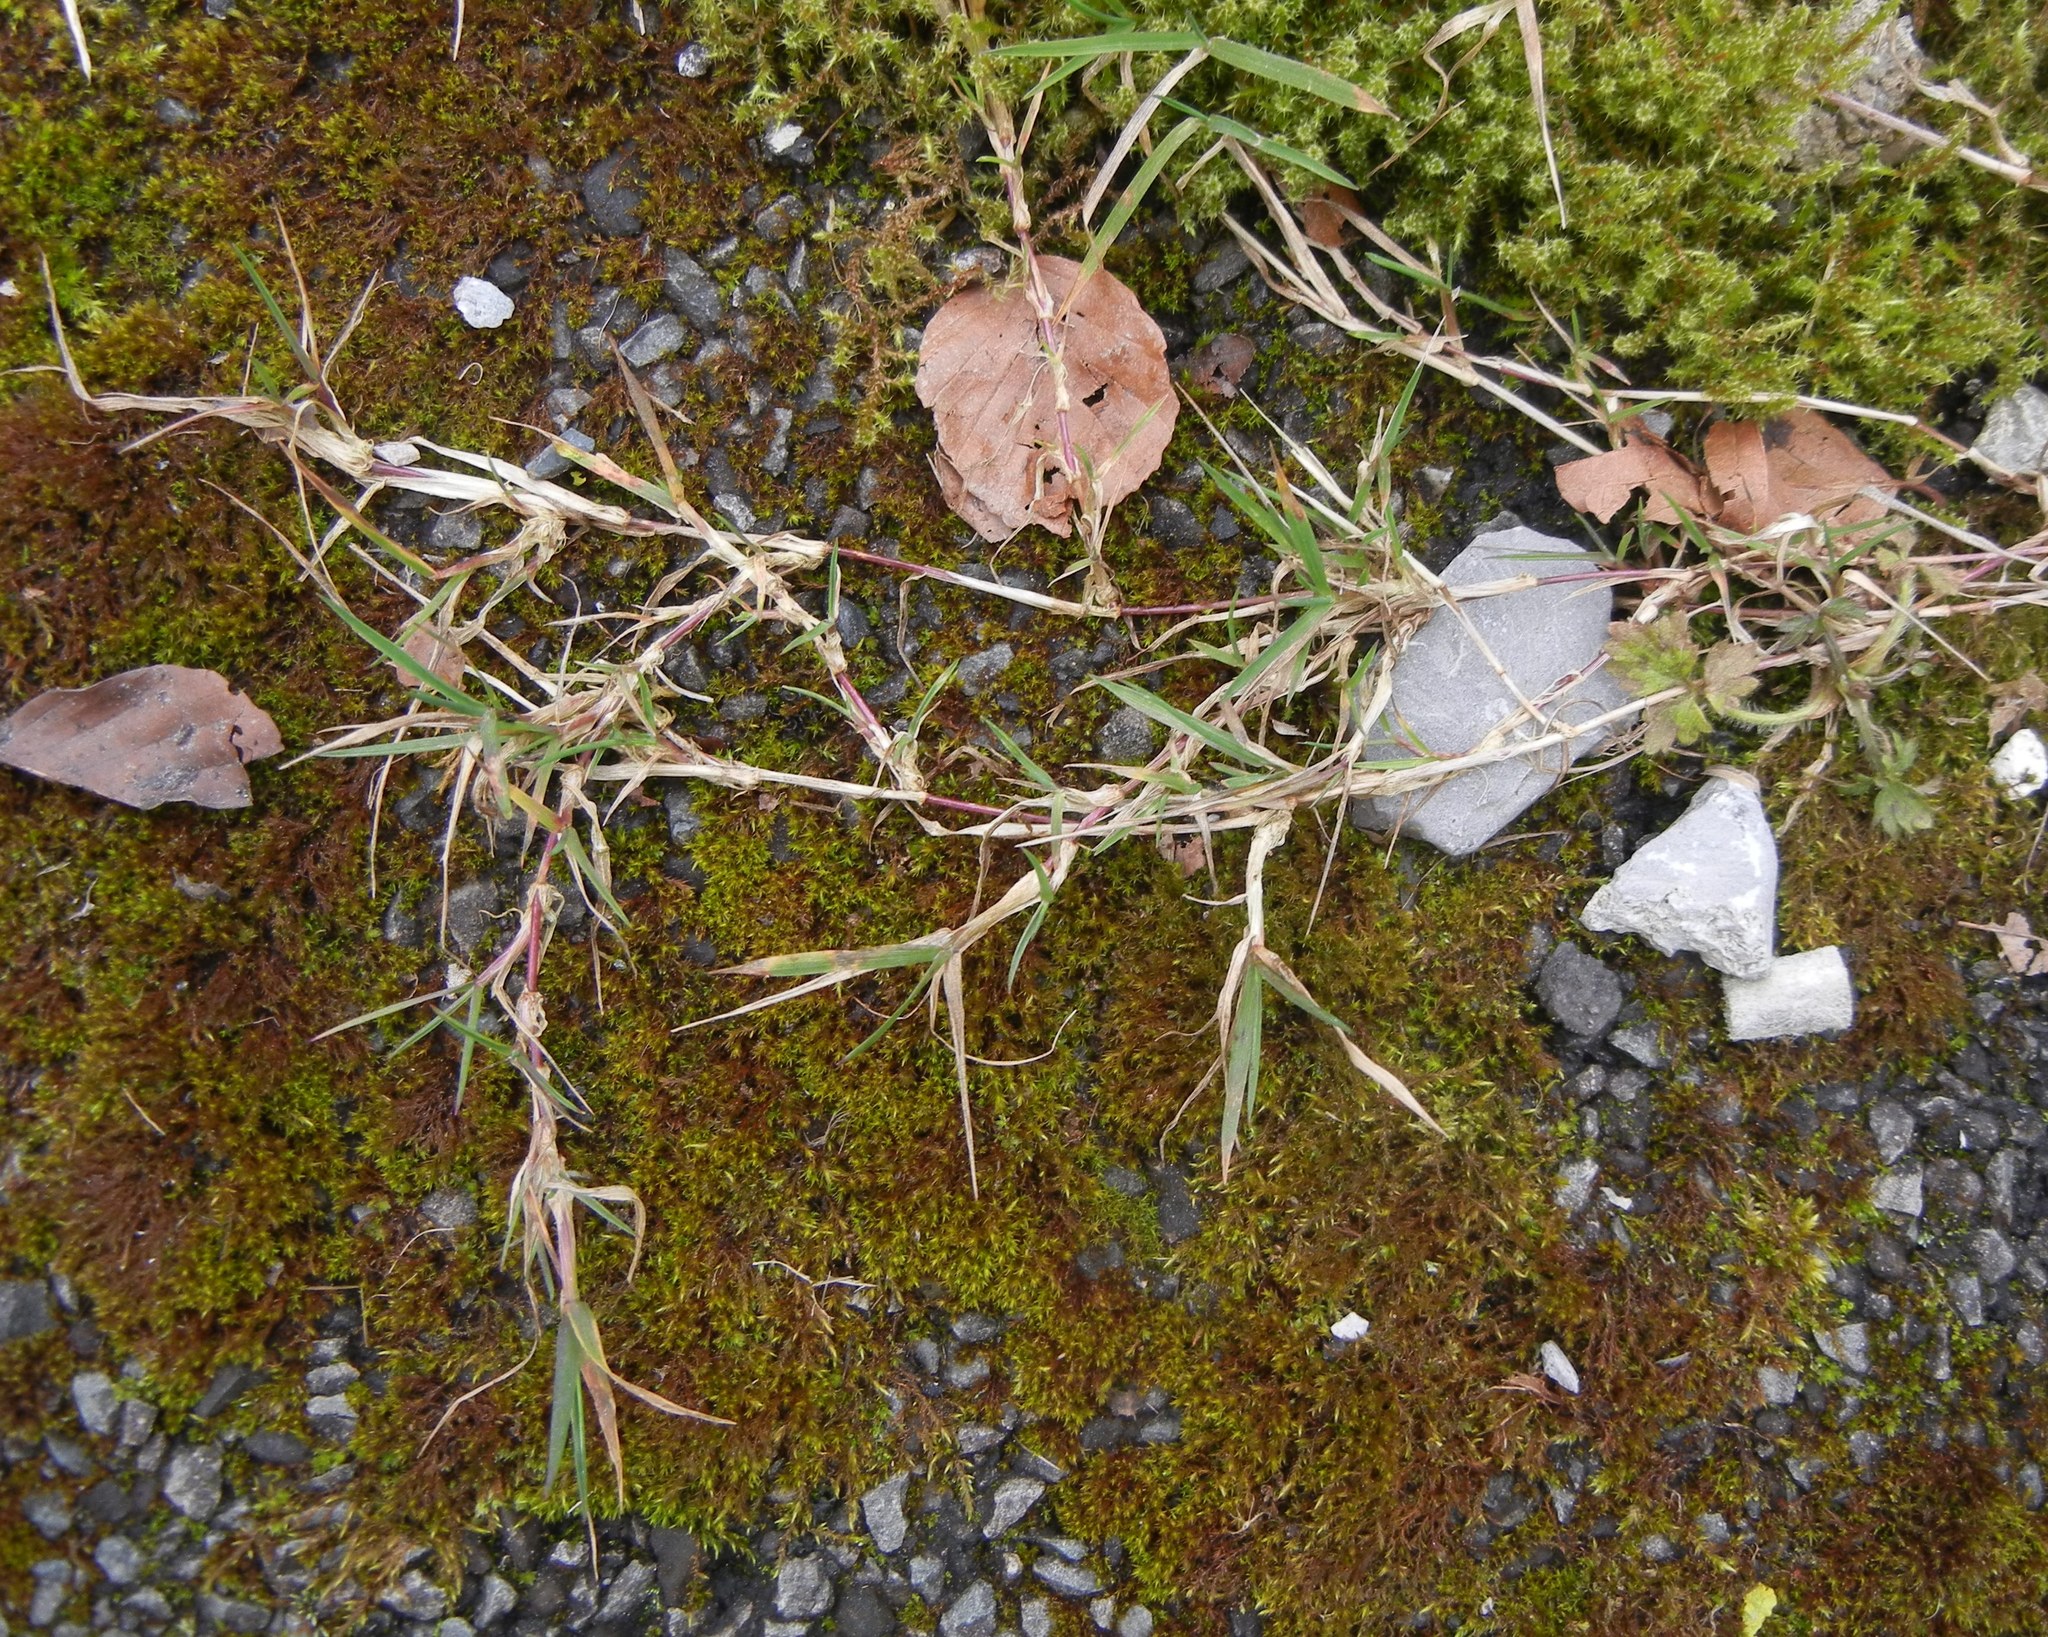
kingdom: Plantae
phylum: Tracheophyta
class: Liliopsida
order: Poales
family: Poaceae
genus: Agrostis
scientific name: Agrostis stolonifera
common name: Creeping bentgrass
